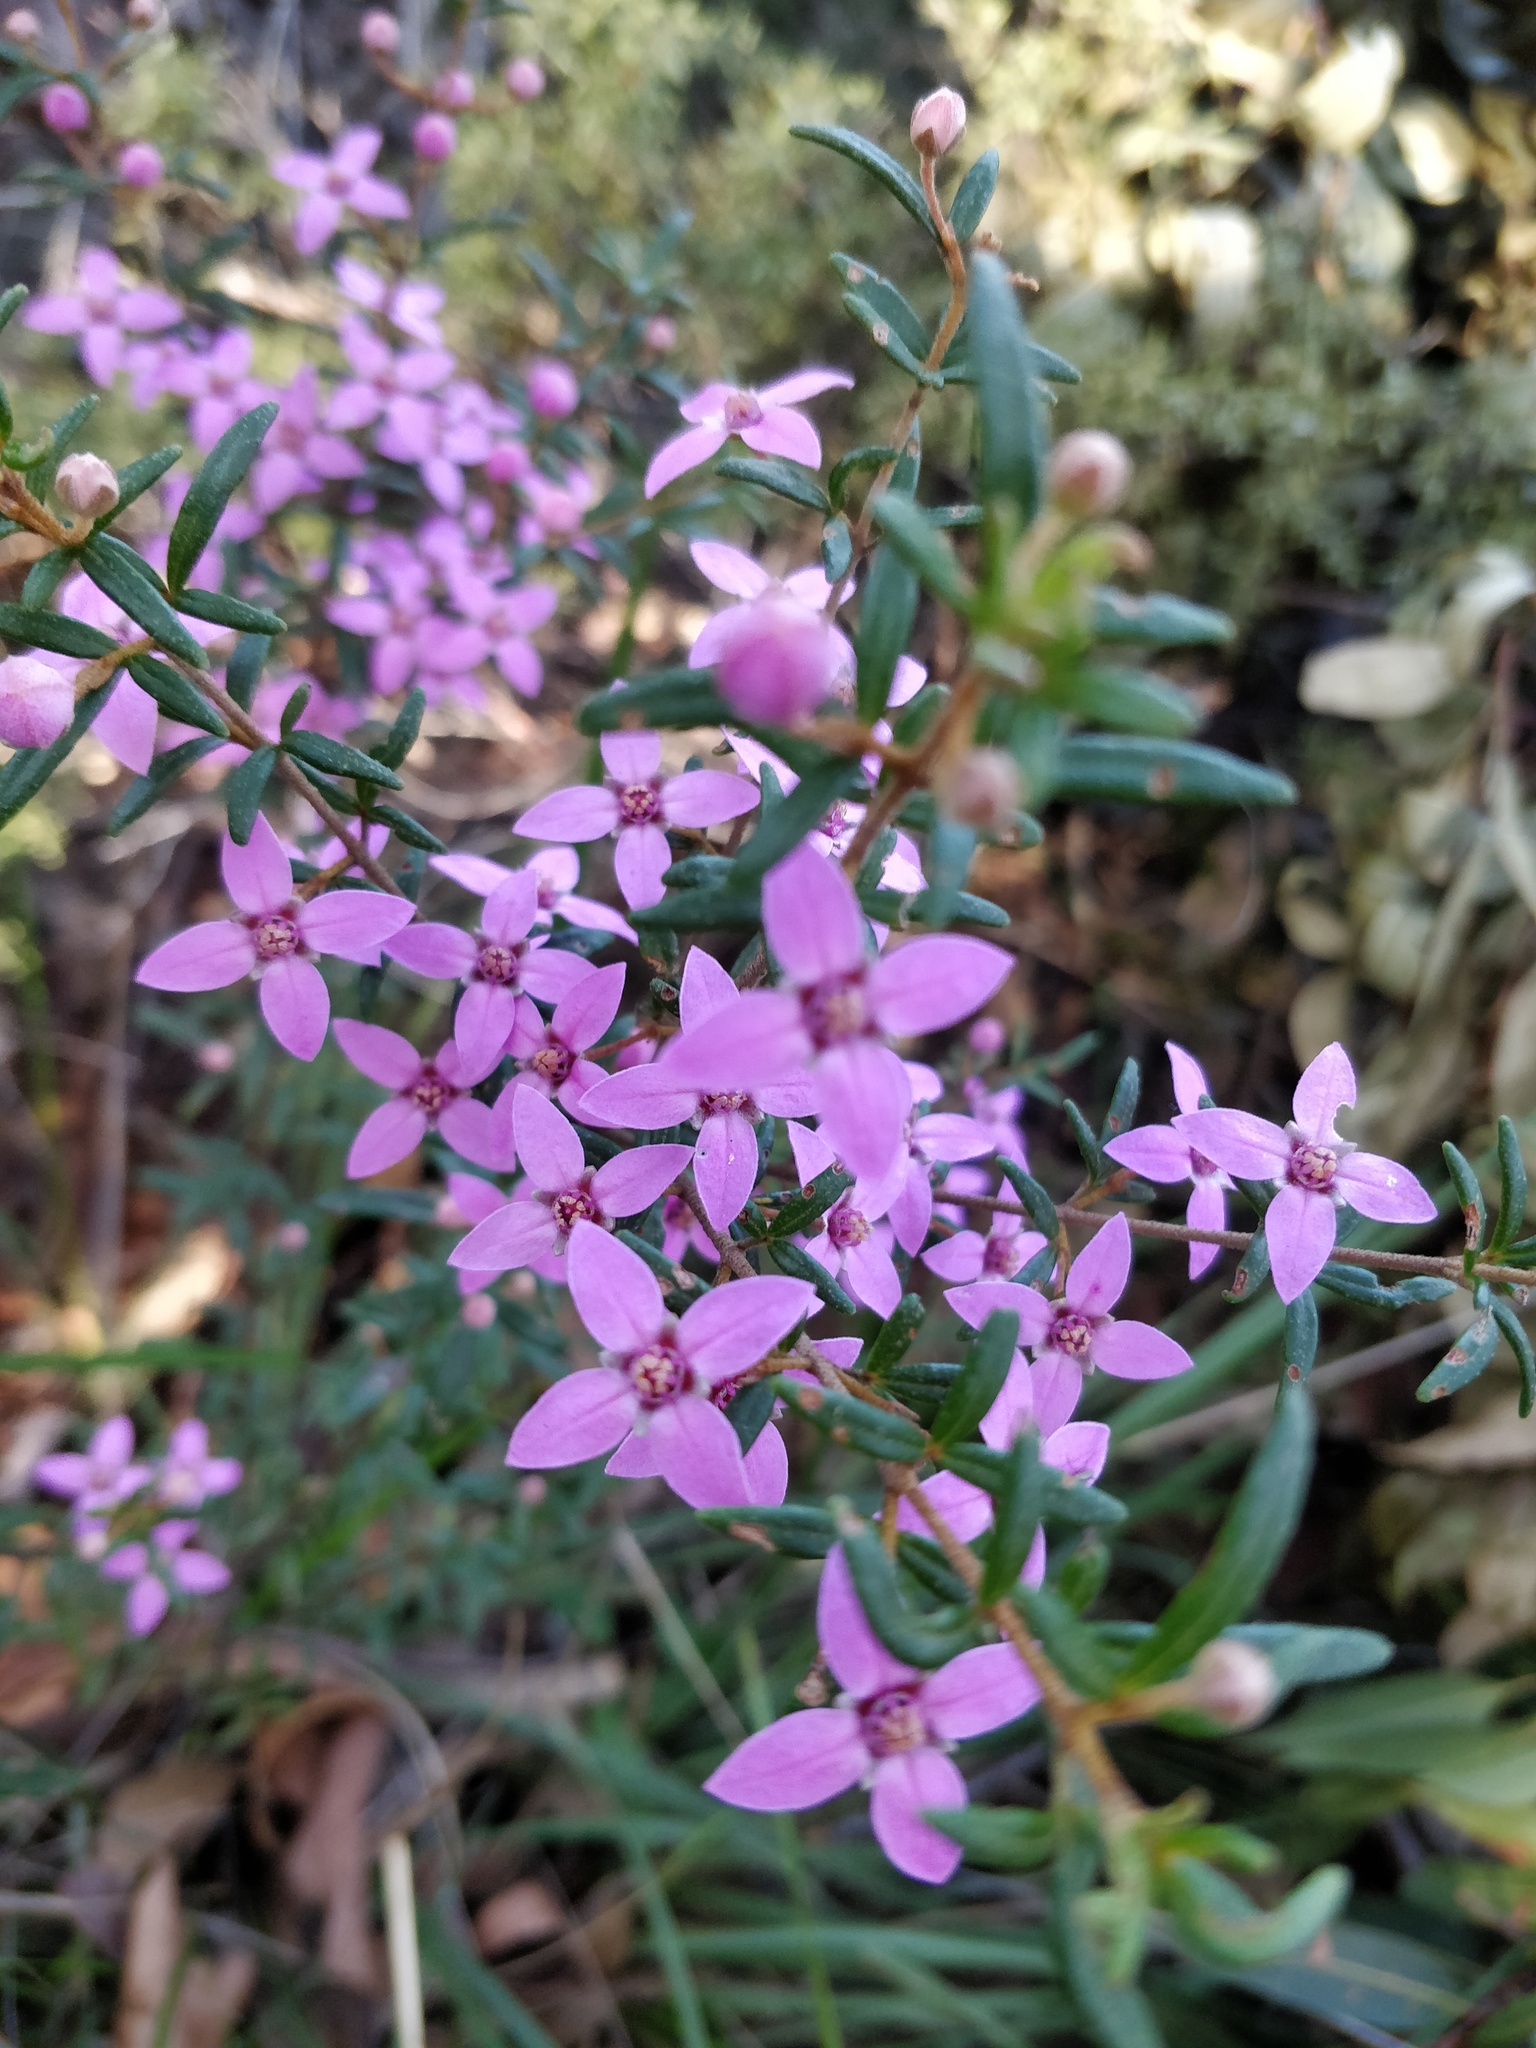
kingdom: Plantae
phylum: Tracheophyta
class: Magnoliopsida
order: Sapindales
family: Rutaceae
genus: Boronia
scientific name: Boronia ledifolia
